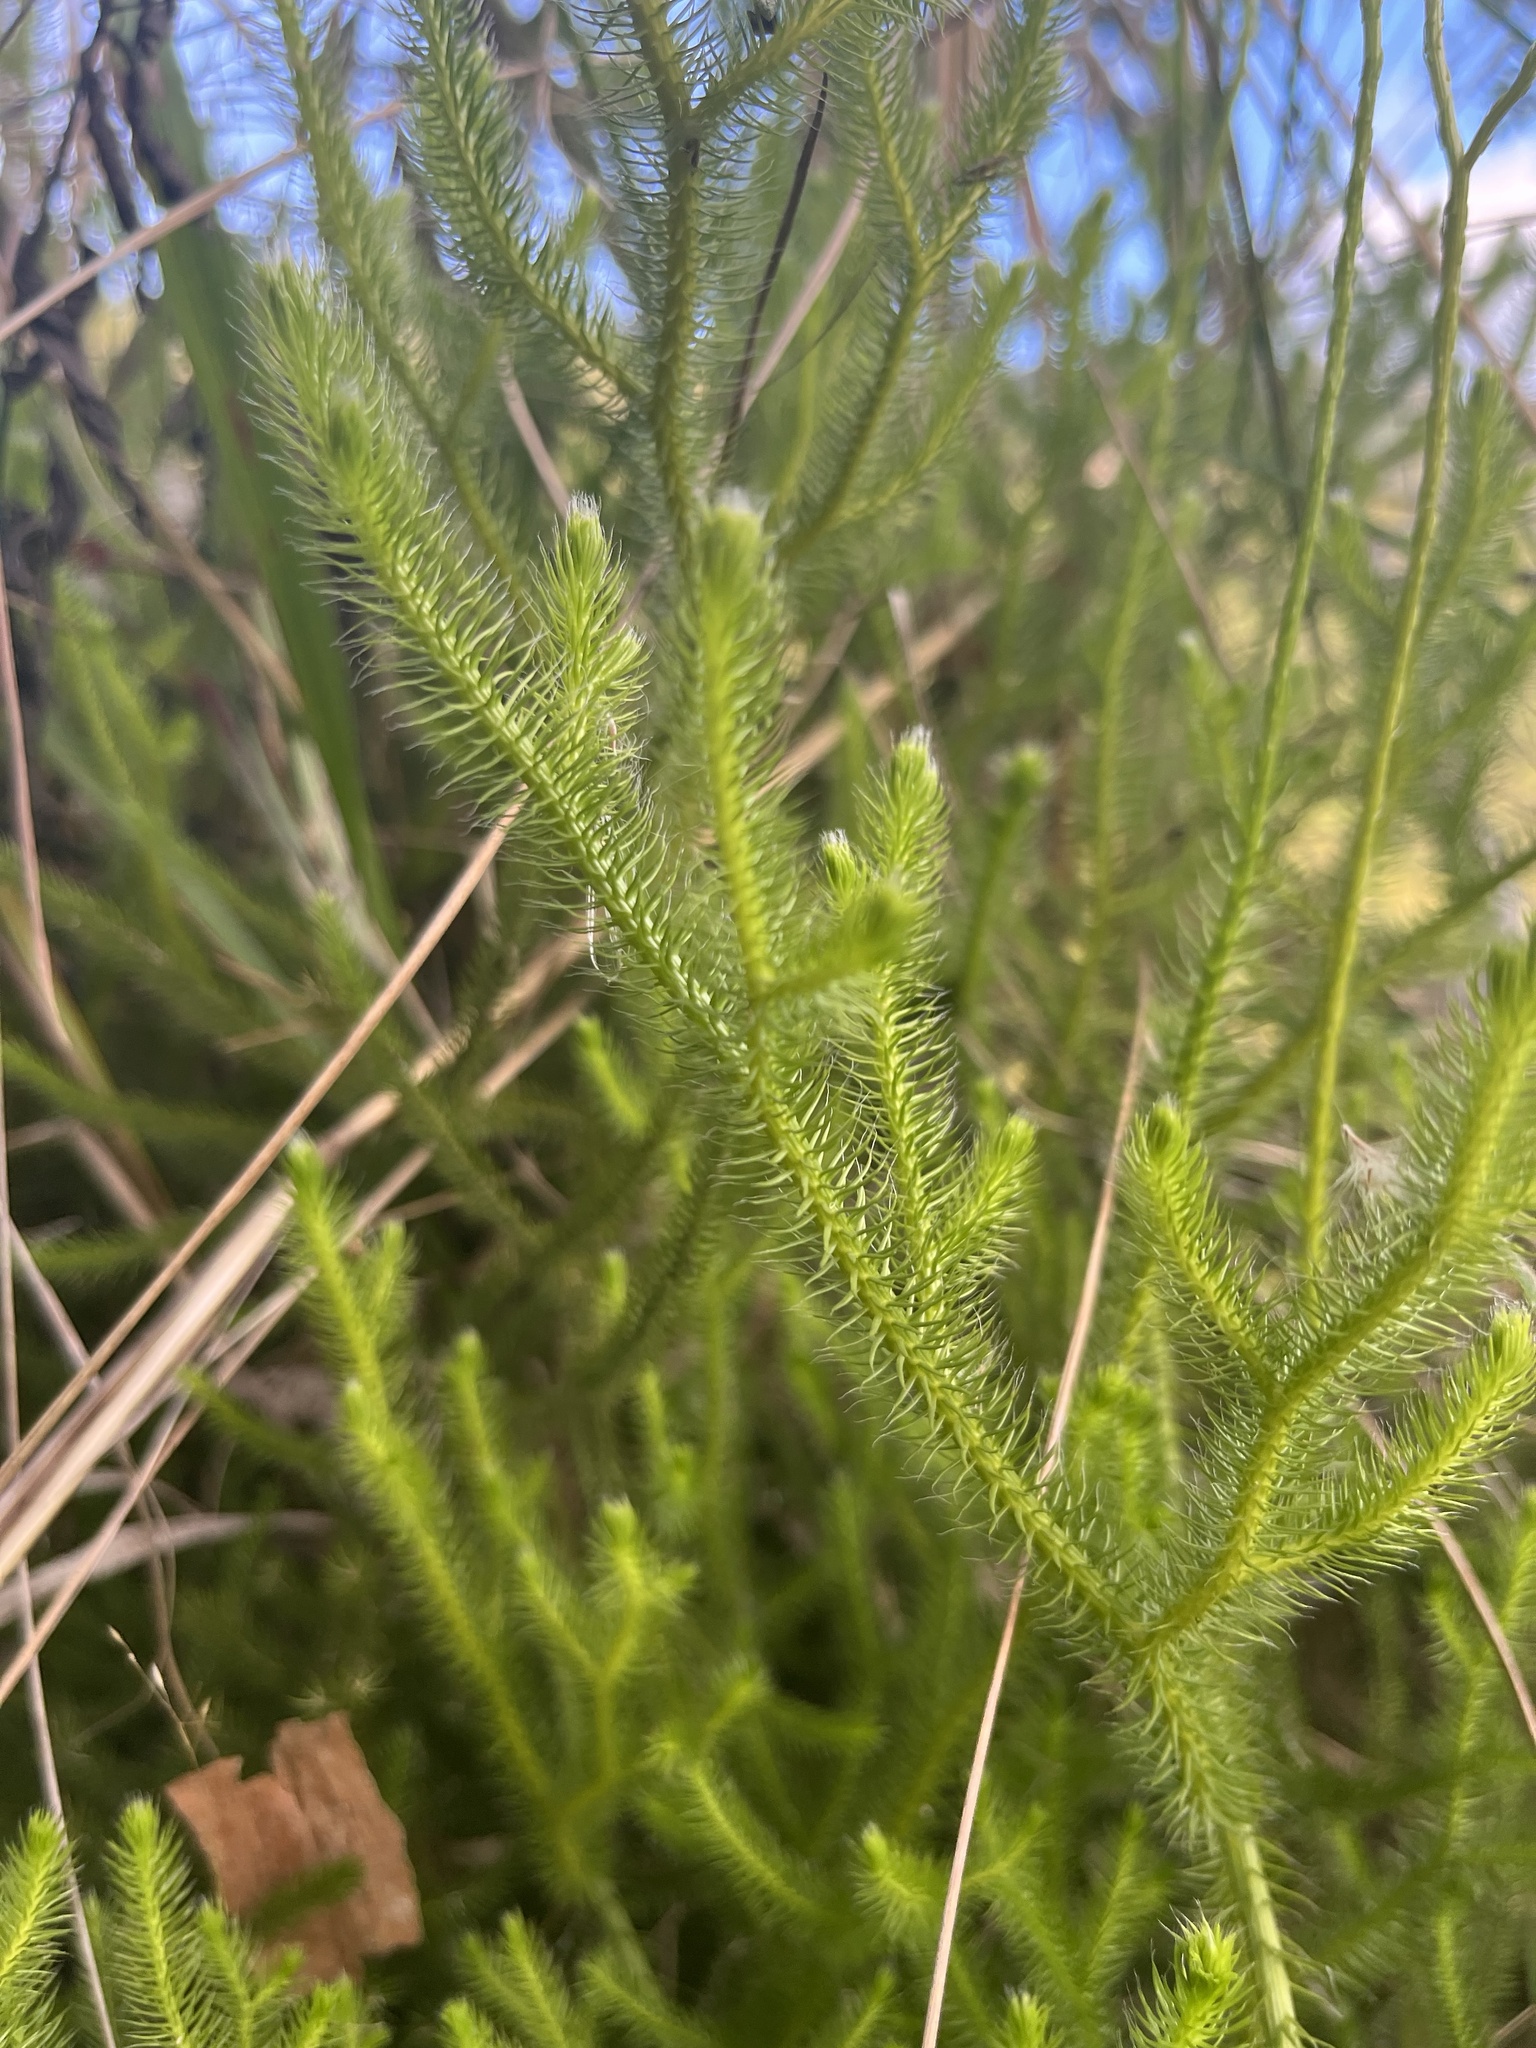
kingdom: Plantae
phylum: Tracheophyta
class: Lycopodiopsida
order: Lycopodiales
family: Lycopodiaceae
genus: Lycopodium
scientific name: Lycopodium clavatum
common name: Stag's-horn clubmoss
